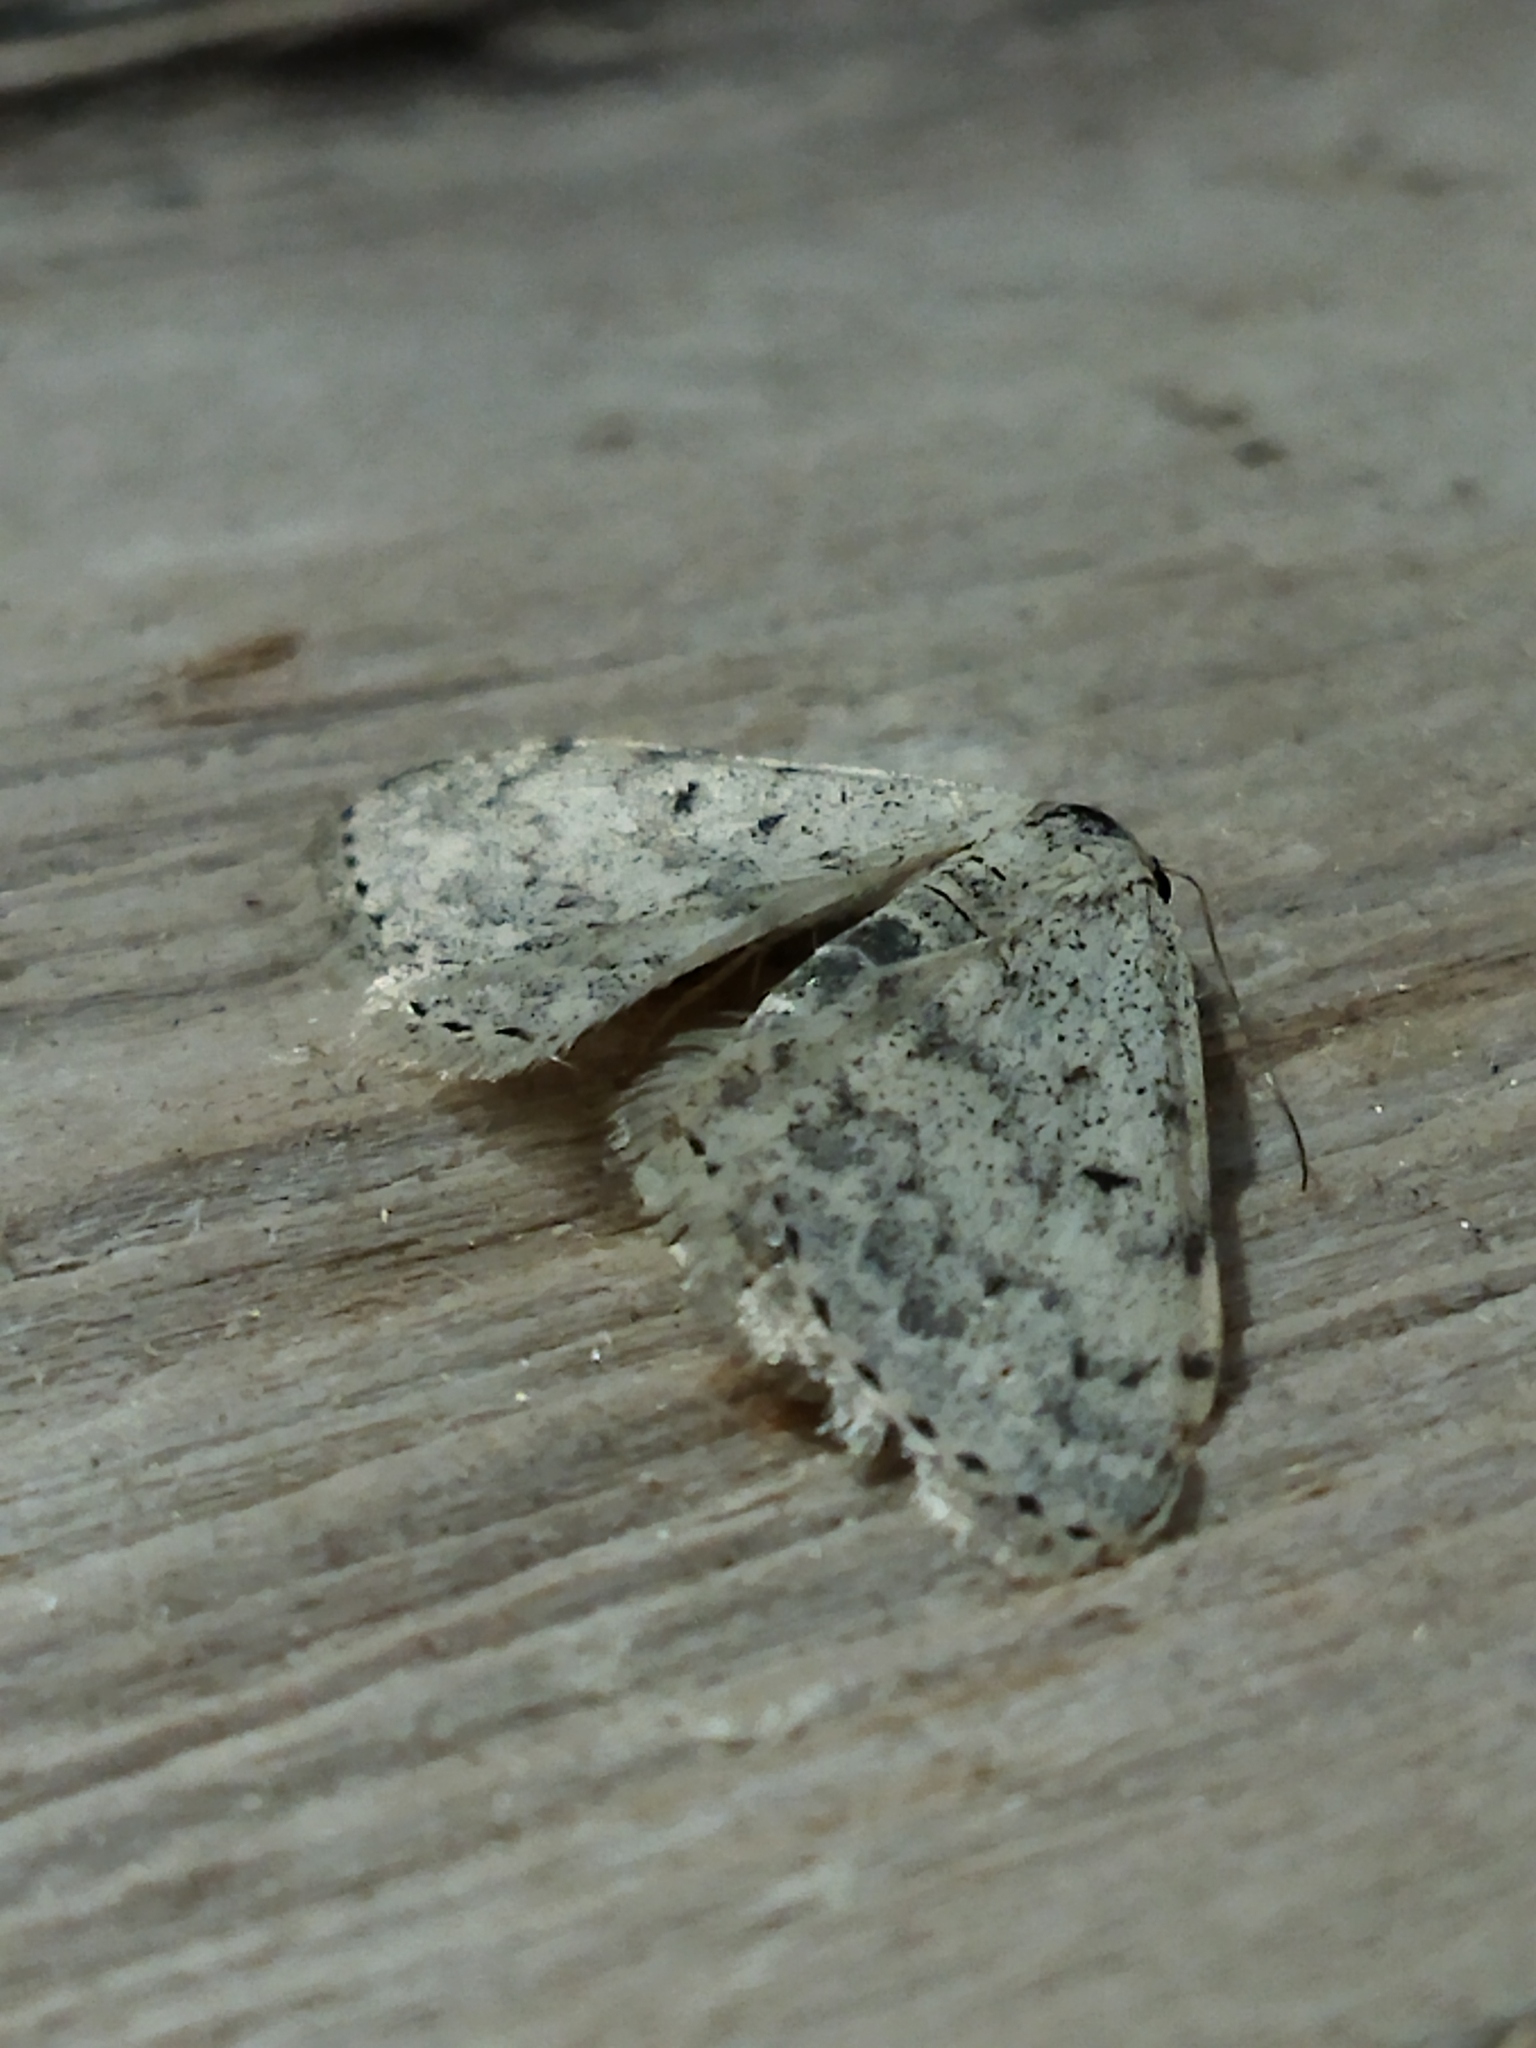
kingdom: Animalia
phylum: Arthropoda
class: Insecta
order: Lepidoptera
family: Geometridae
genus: Idaea
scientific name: Idaea camparia
